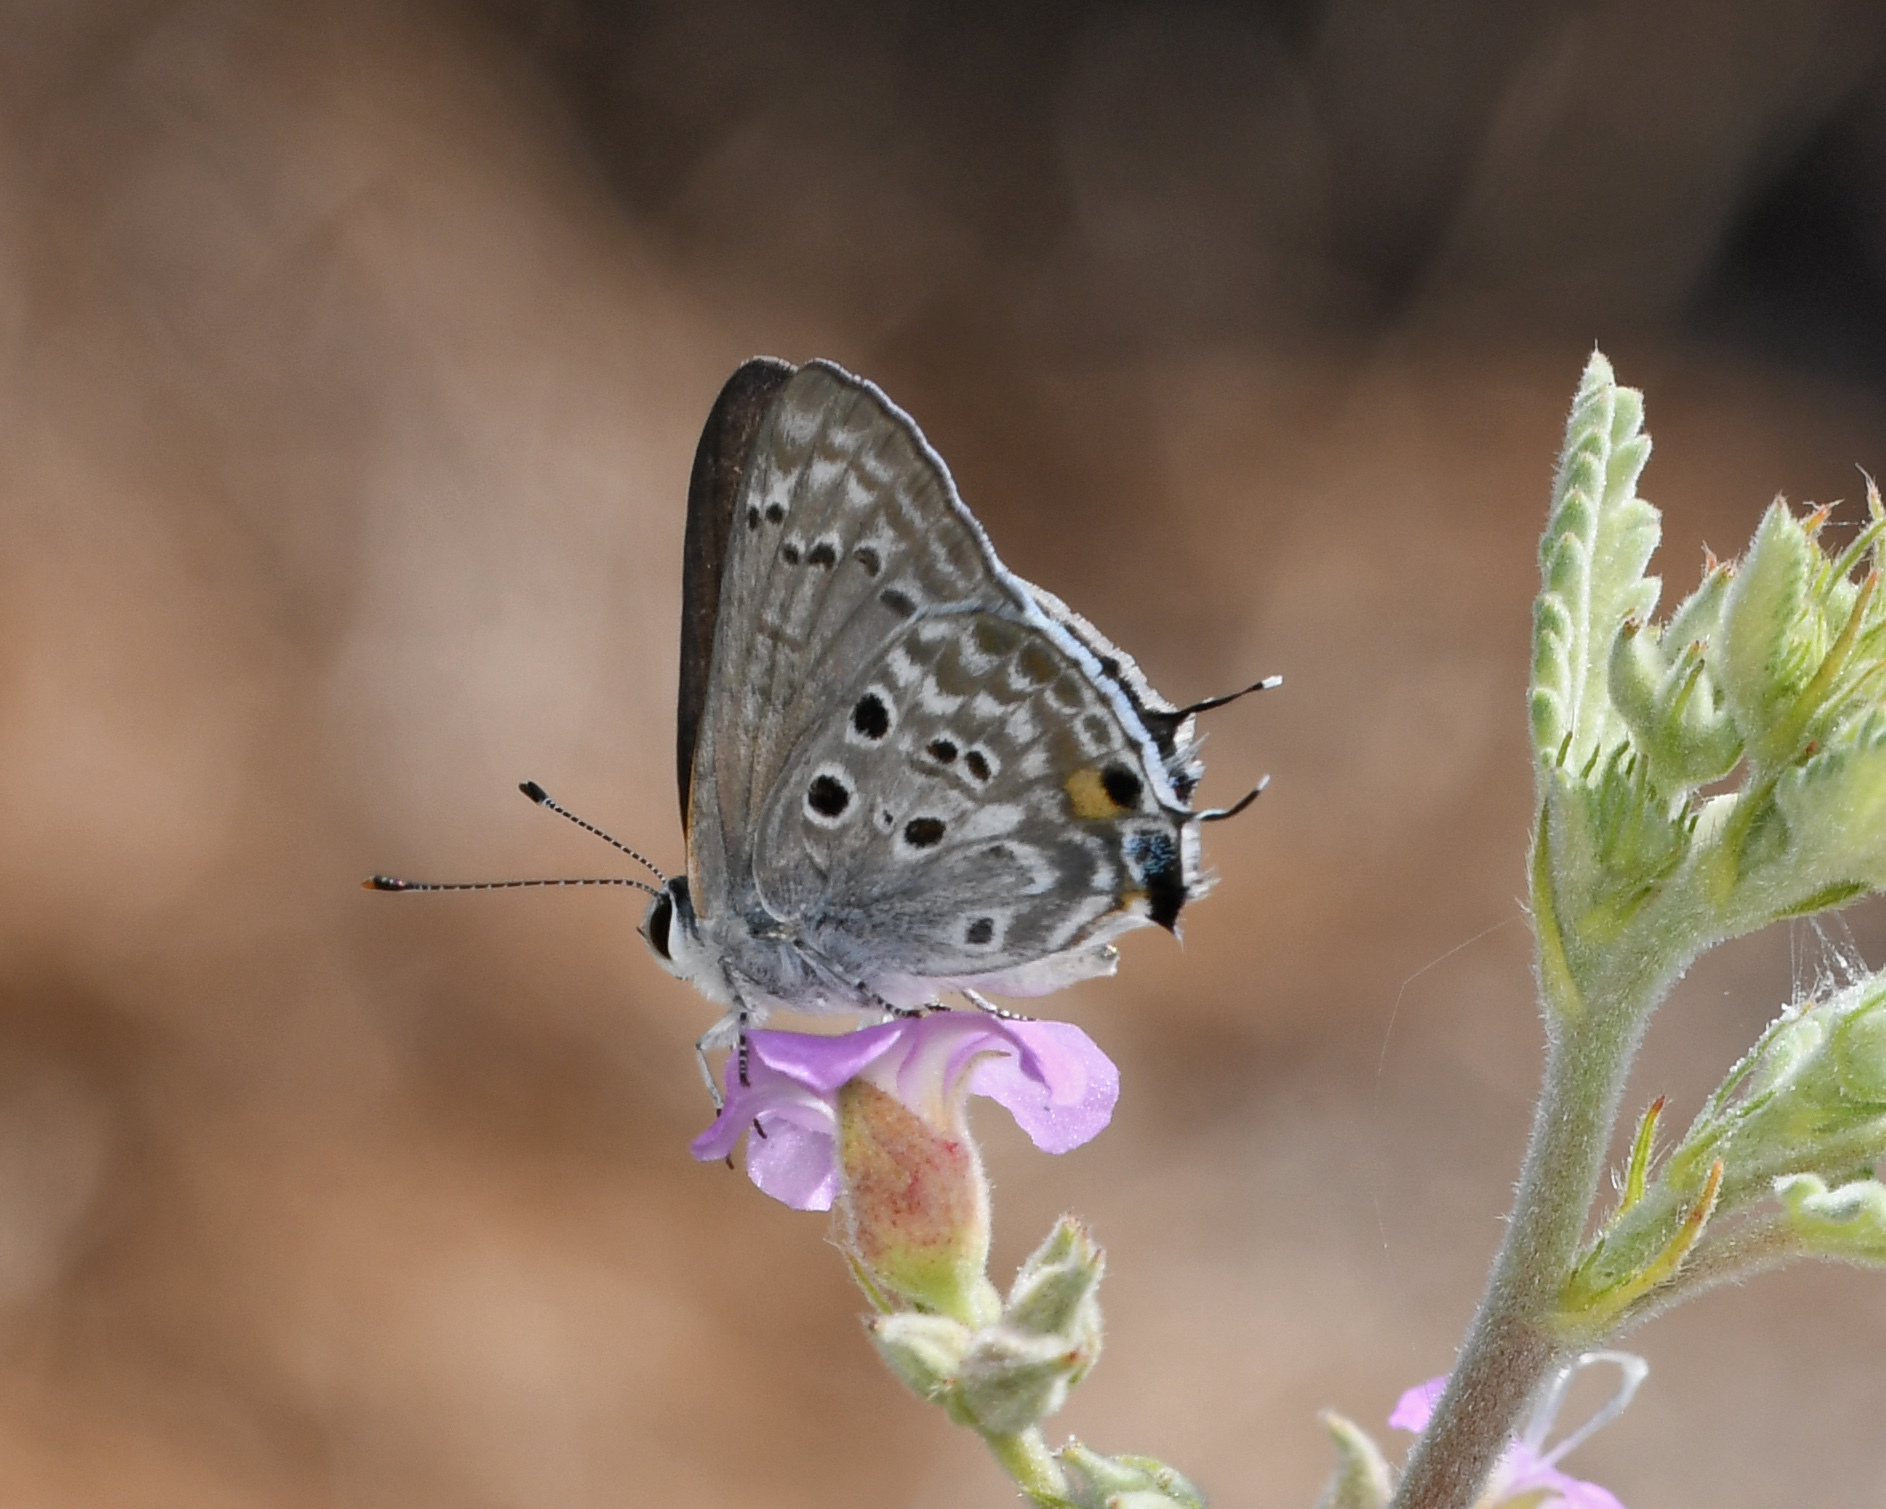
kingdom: Animalia
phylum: Arthropoda
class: Insecta
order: Lepidoptera
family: Lycaenidae
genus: Strymon
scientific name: Strymon
